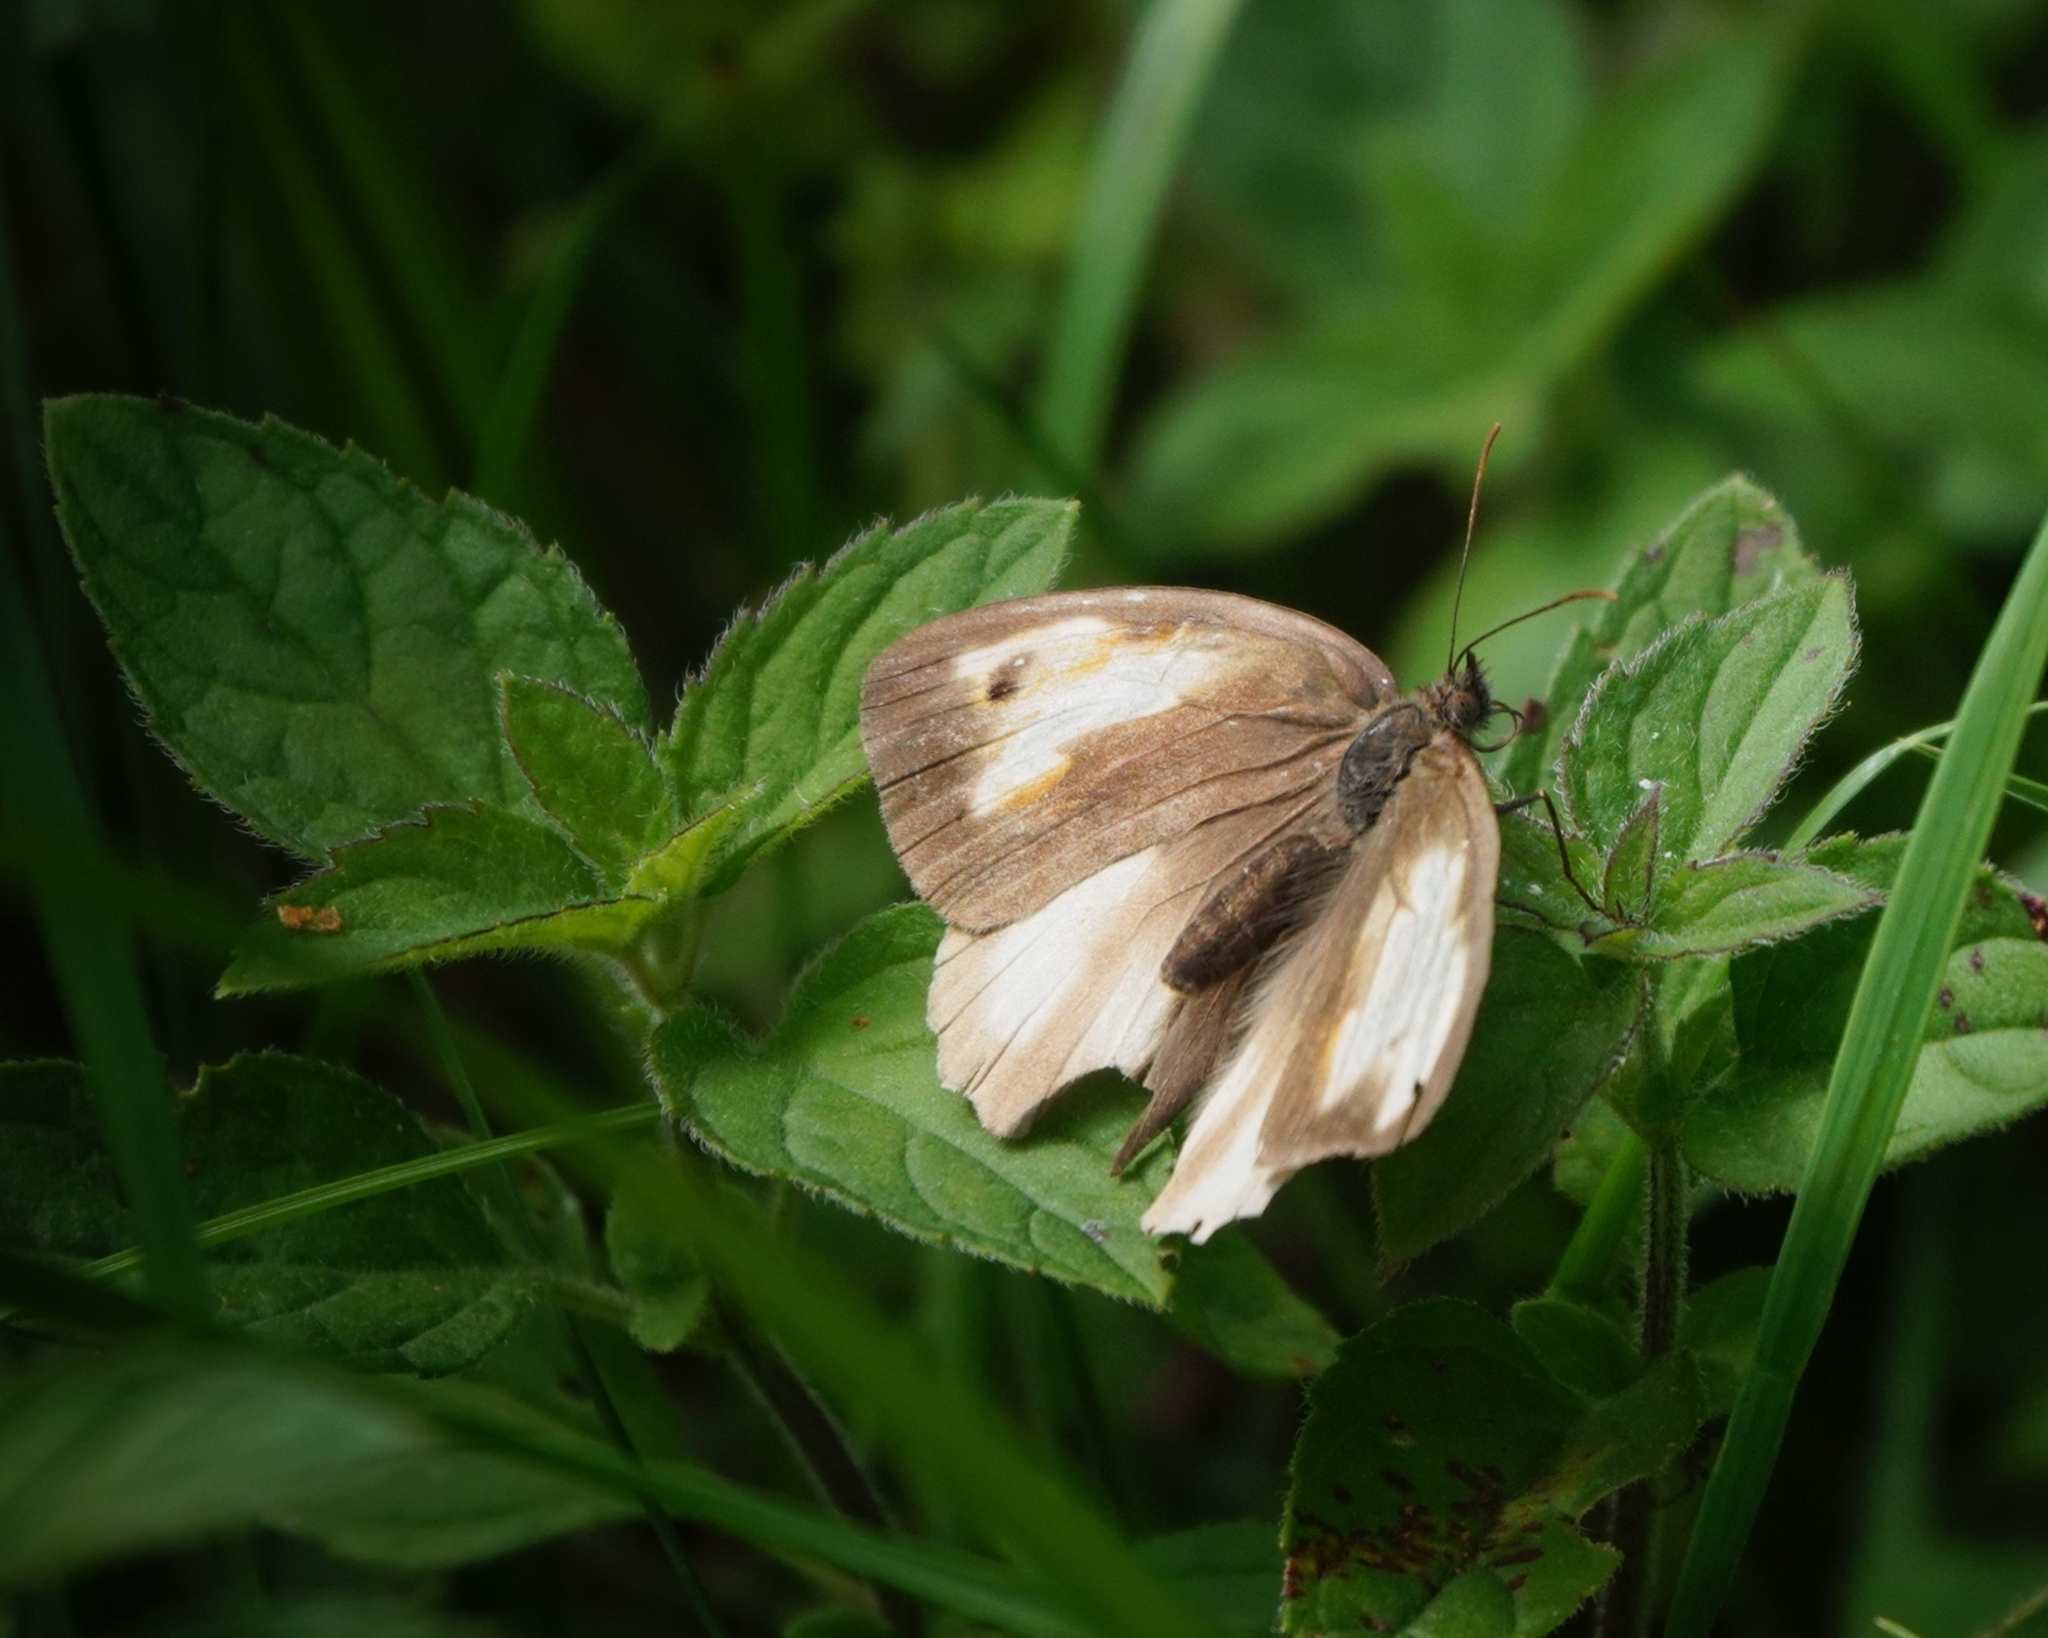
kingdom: Animalia
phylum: Arthropoda
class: Insecta
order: Lepidoptera
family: Nymphalidae
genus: Maniola
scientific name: Maniola jurtina
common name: Meadow brown
